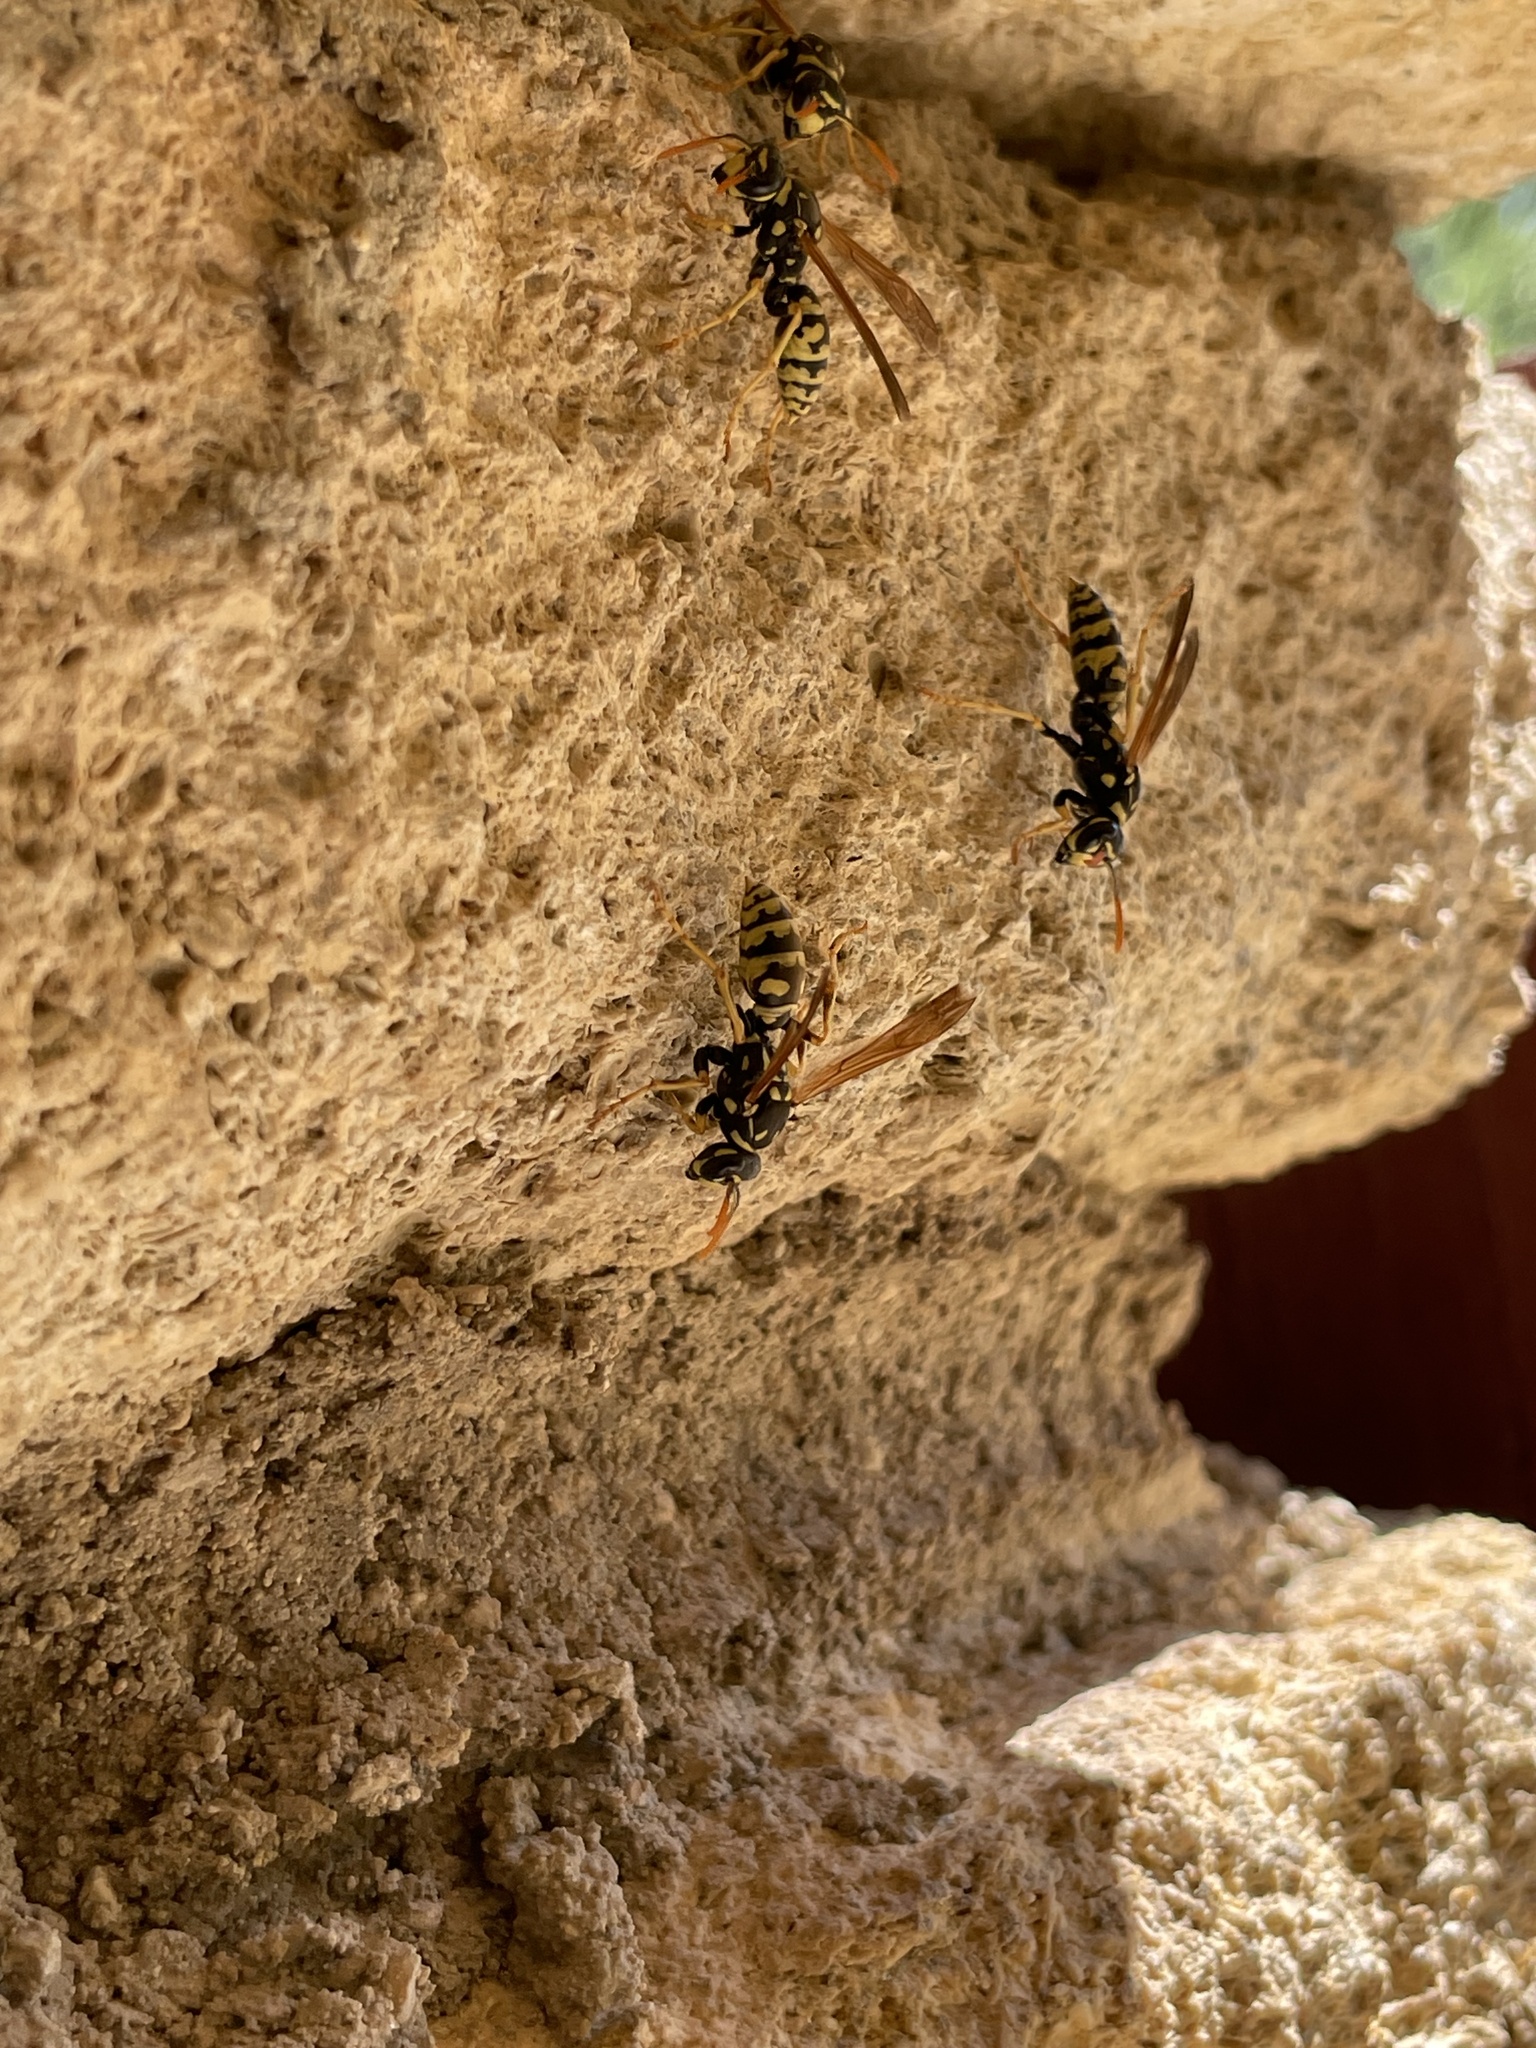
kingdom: Animalia
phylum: Arthropoda
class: Insecta
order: Hymenoptera
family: Eumenidae
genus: Polistes
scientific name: Polistes dominula
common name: Paper wasp
